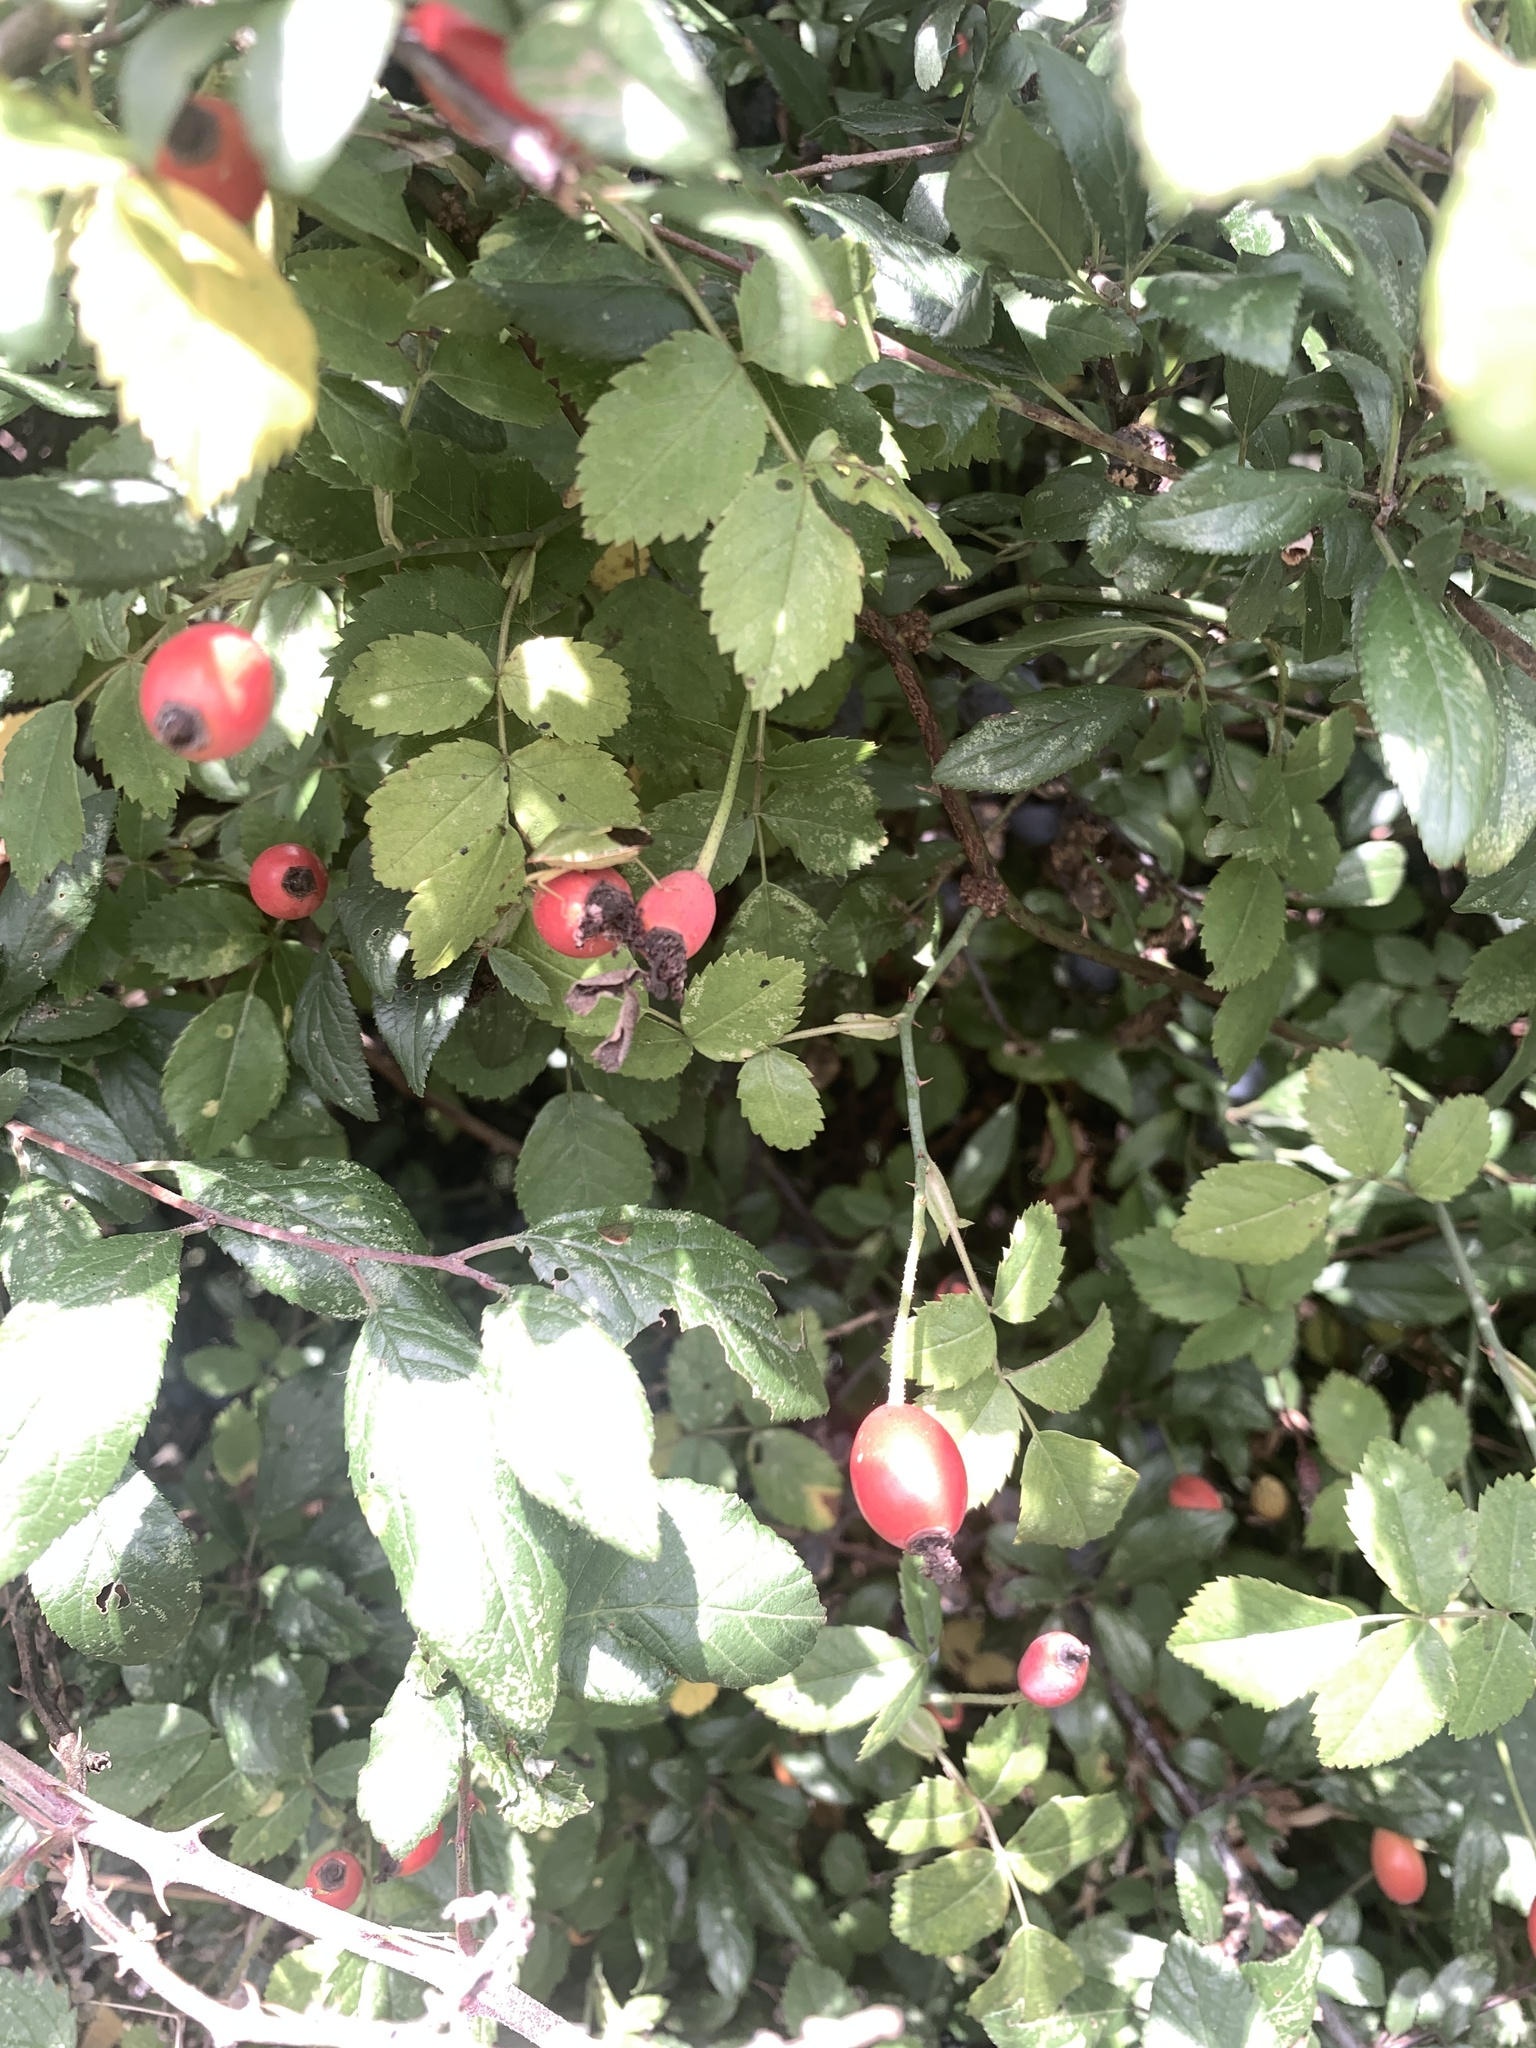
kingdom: Plantae
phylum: Tracheophyta
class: Magnoliopsida
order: Rosales
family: Rosaceae
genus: Rosa
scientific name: Rosa canina
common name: Dog rose
